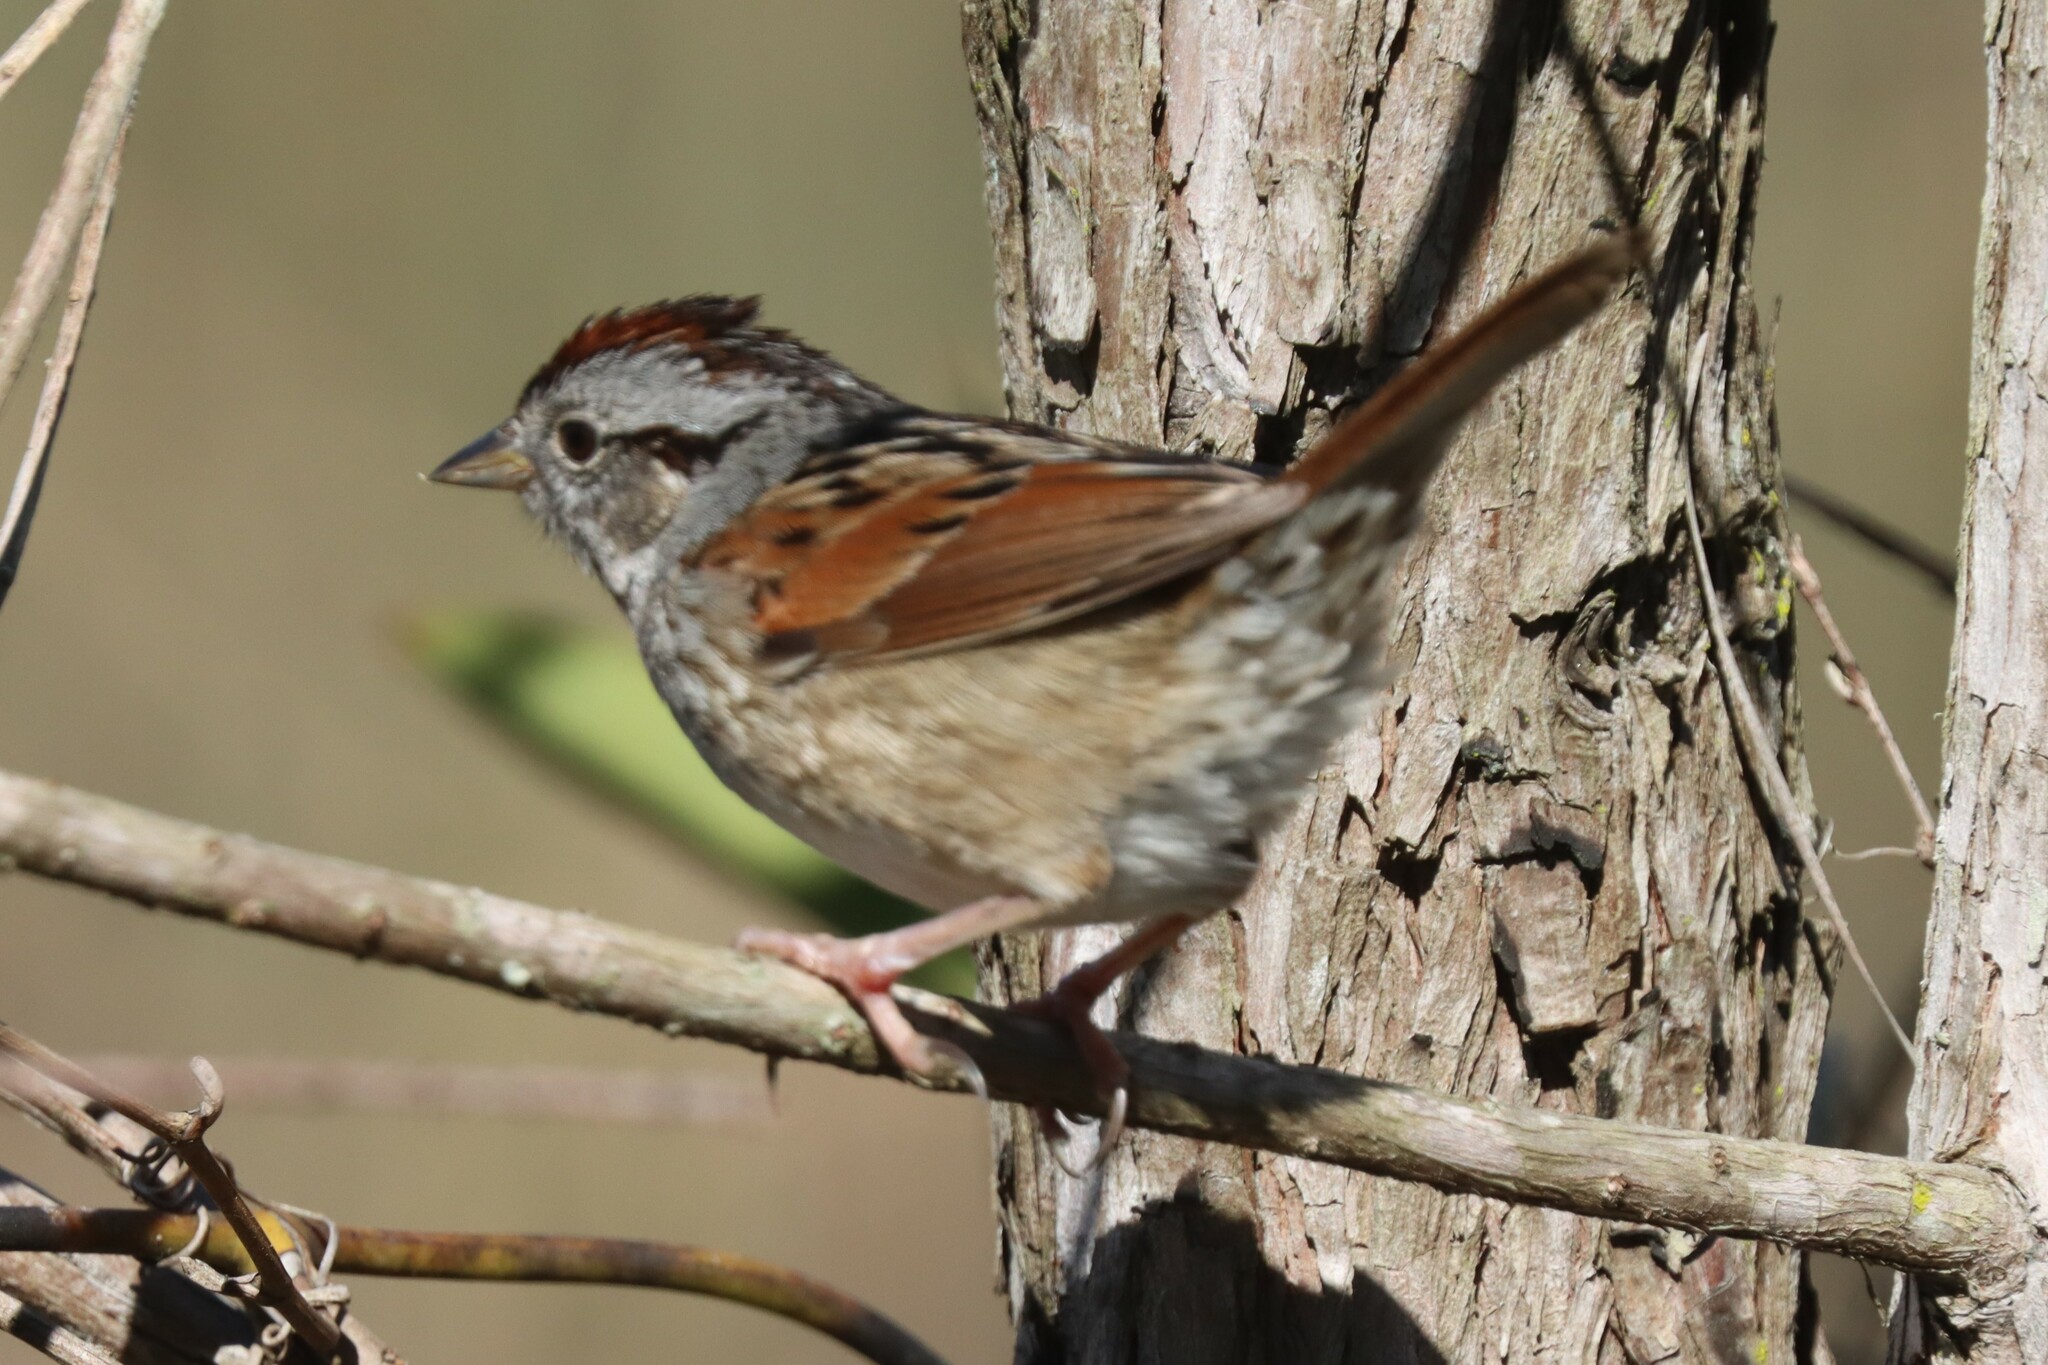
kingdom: Animalia
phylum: Chordata
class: Aves
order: Passeriformes
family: Passerellidae
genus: Melospiza
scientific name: Melospiza georgiana
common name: Swamp sparrow
